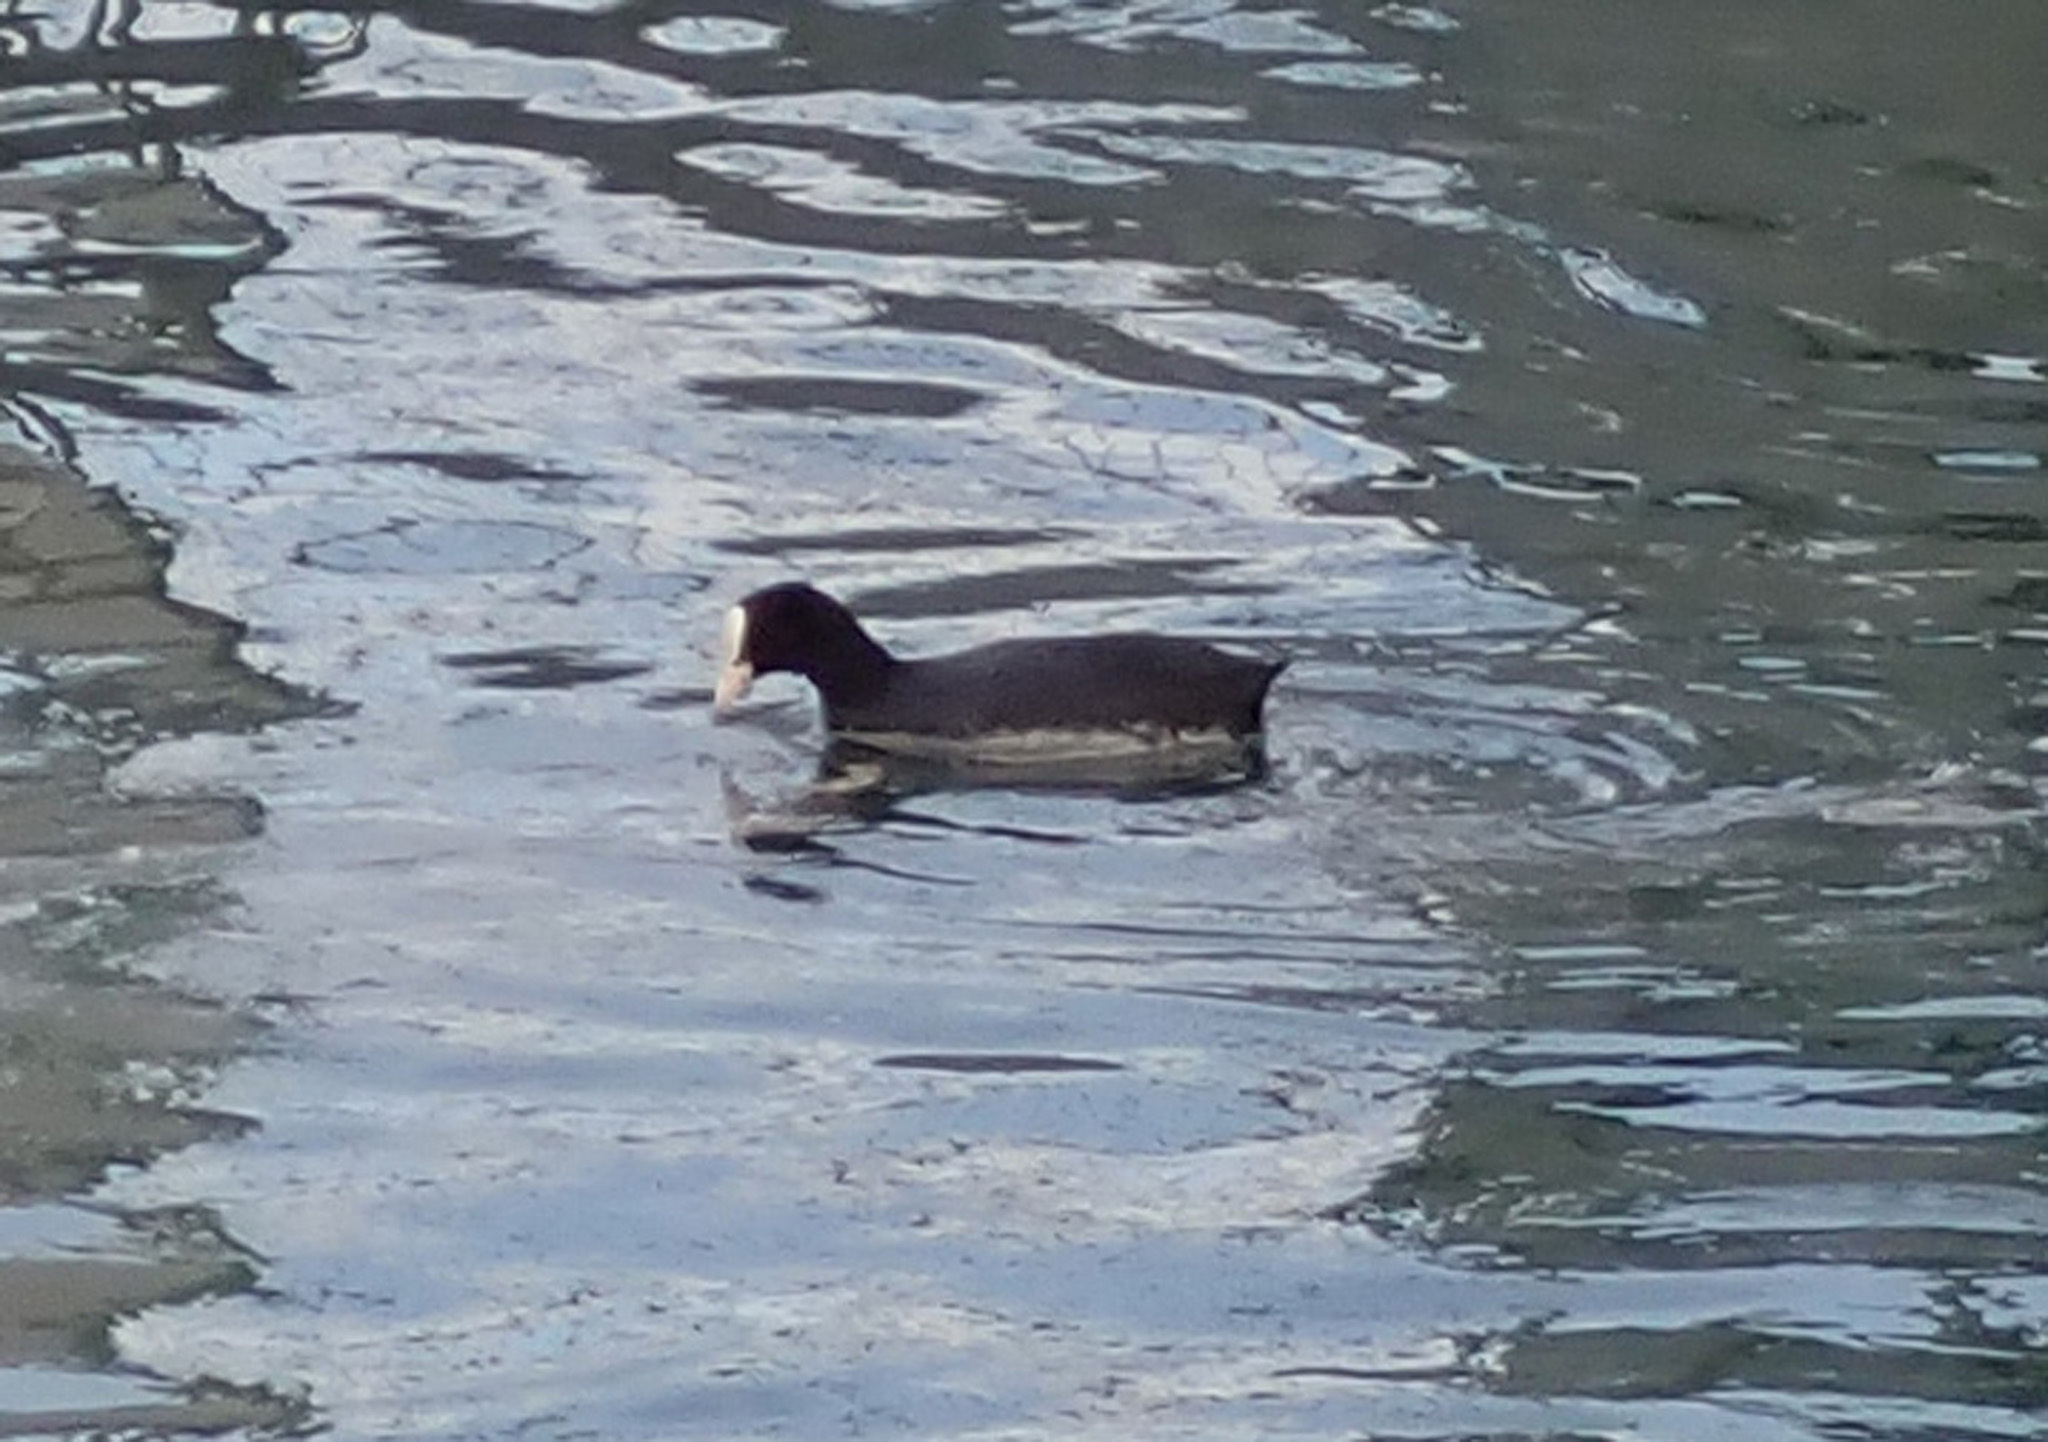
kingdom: Animalia
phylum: Chordata
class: Aves
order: Gruiformes
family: Rallidae
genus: Fulica
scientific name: Fulica atra
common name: Eurasian coot
